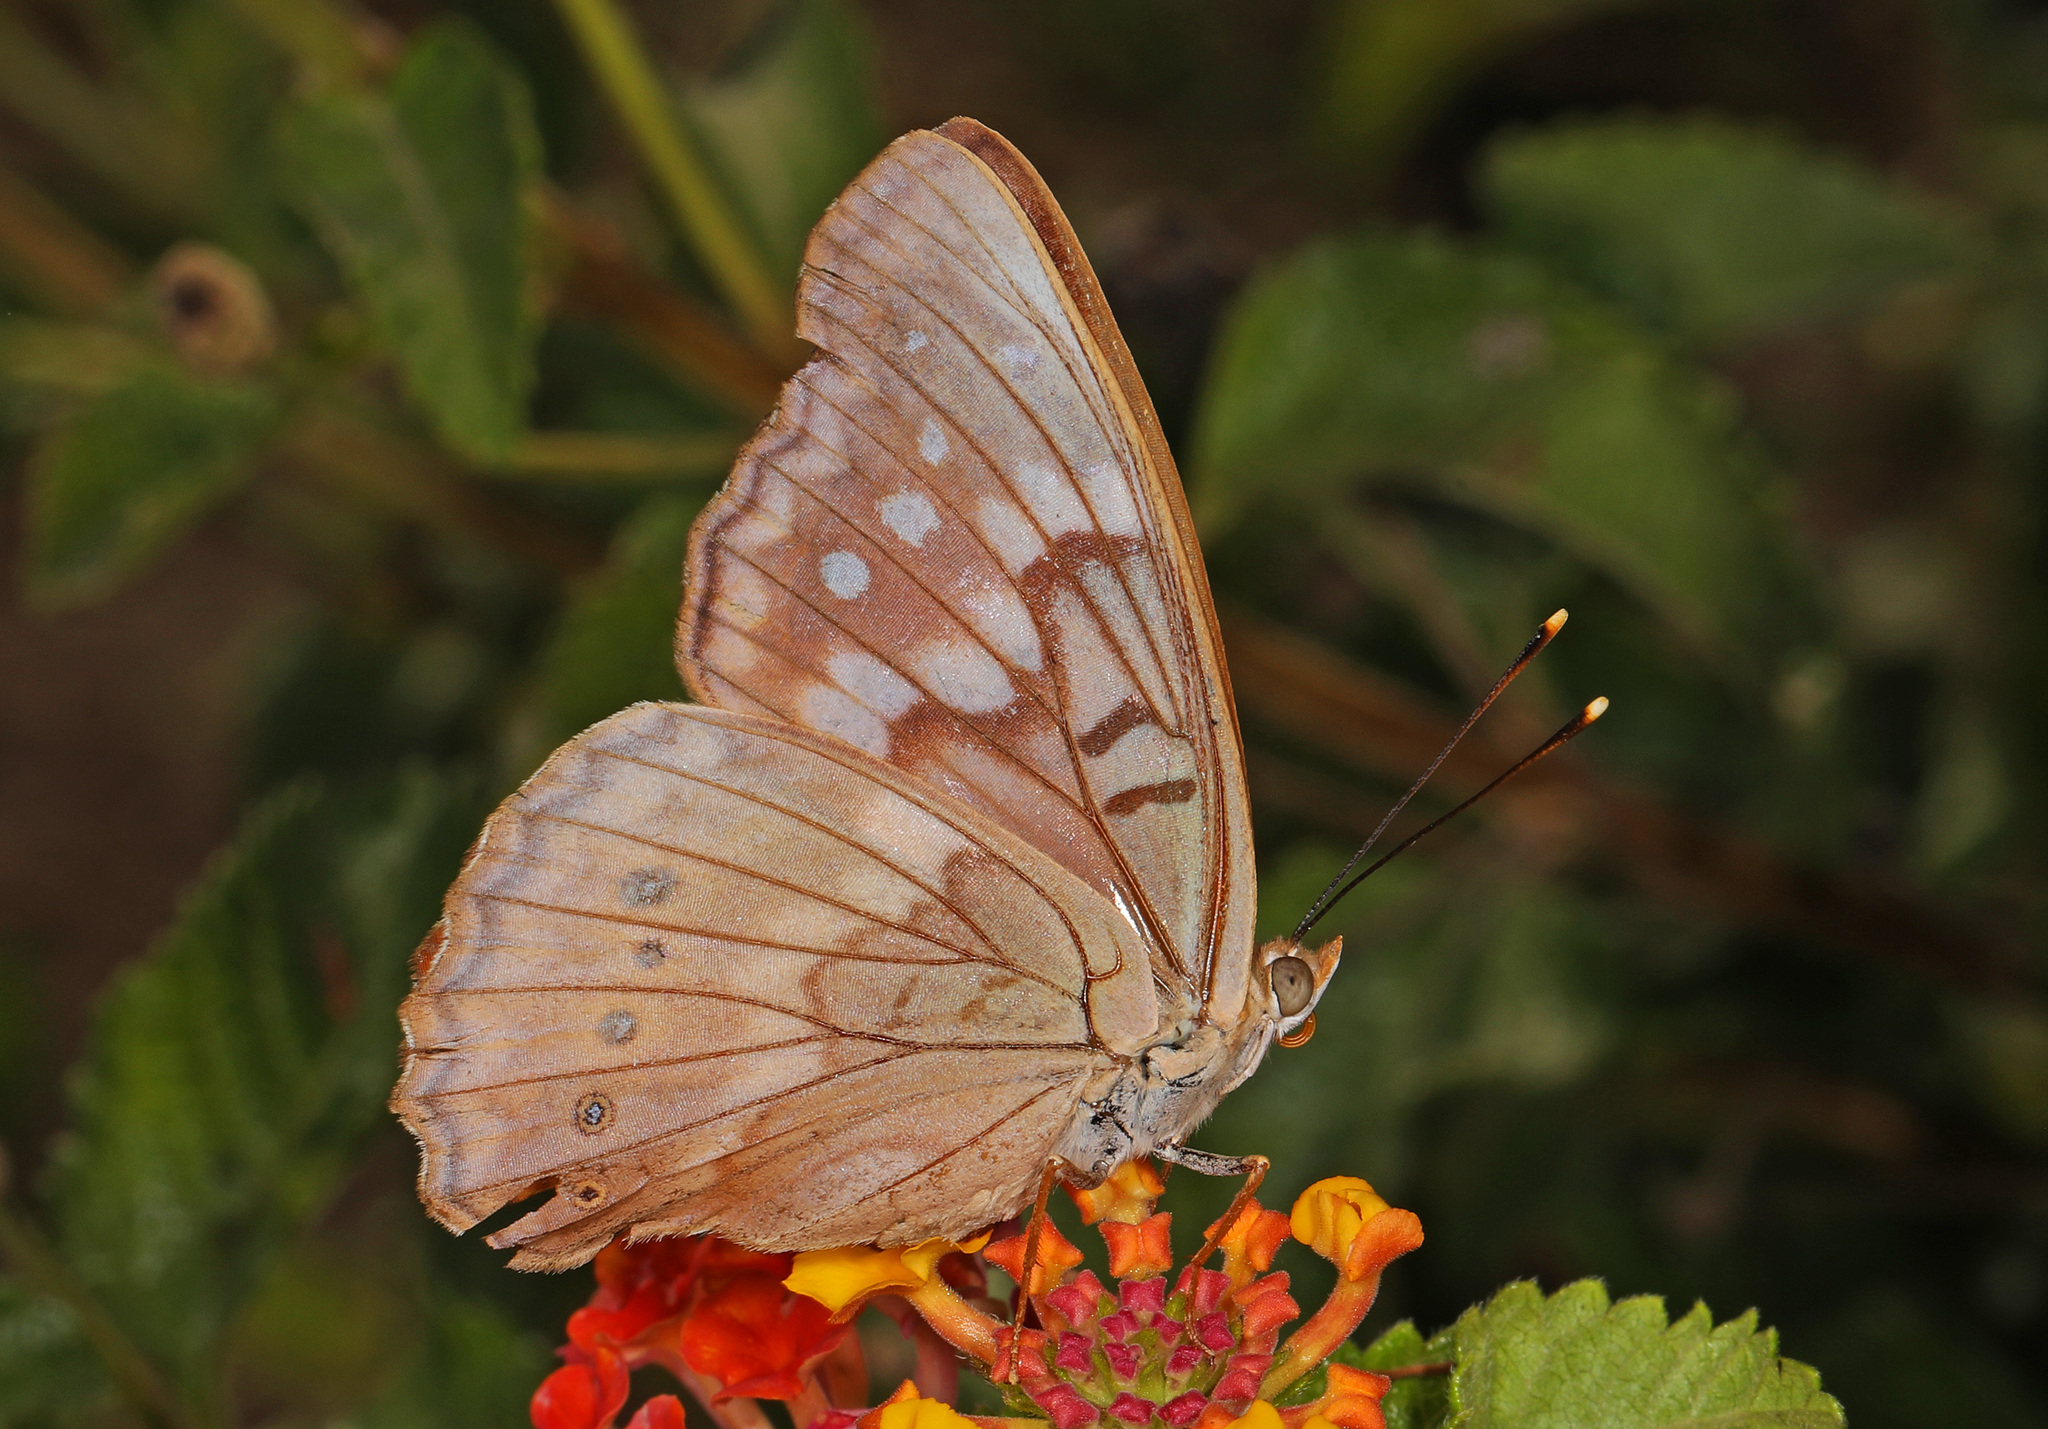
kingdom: Animalia
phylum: Arthropoda
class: Insecta
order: Lepidoptera
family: Nymphalidae
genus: Asterocampa
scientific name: Asterocampa clyton
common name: Tawny emperor
